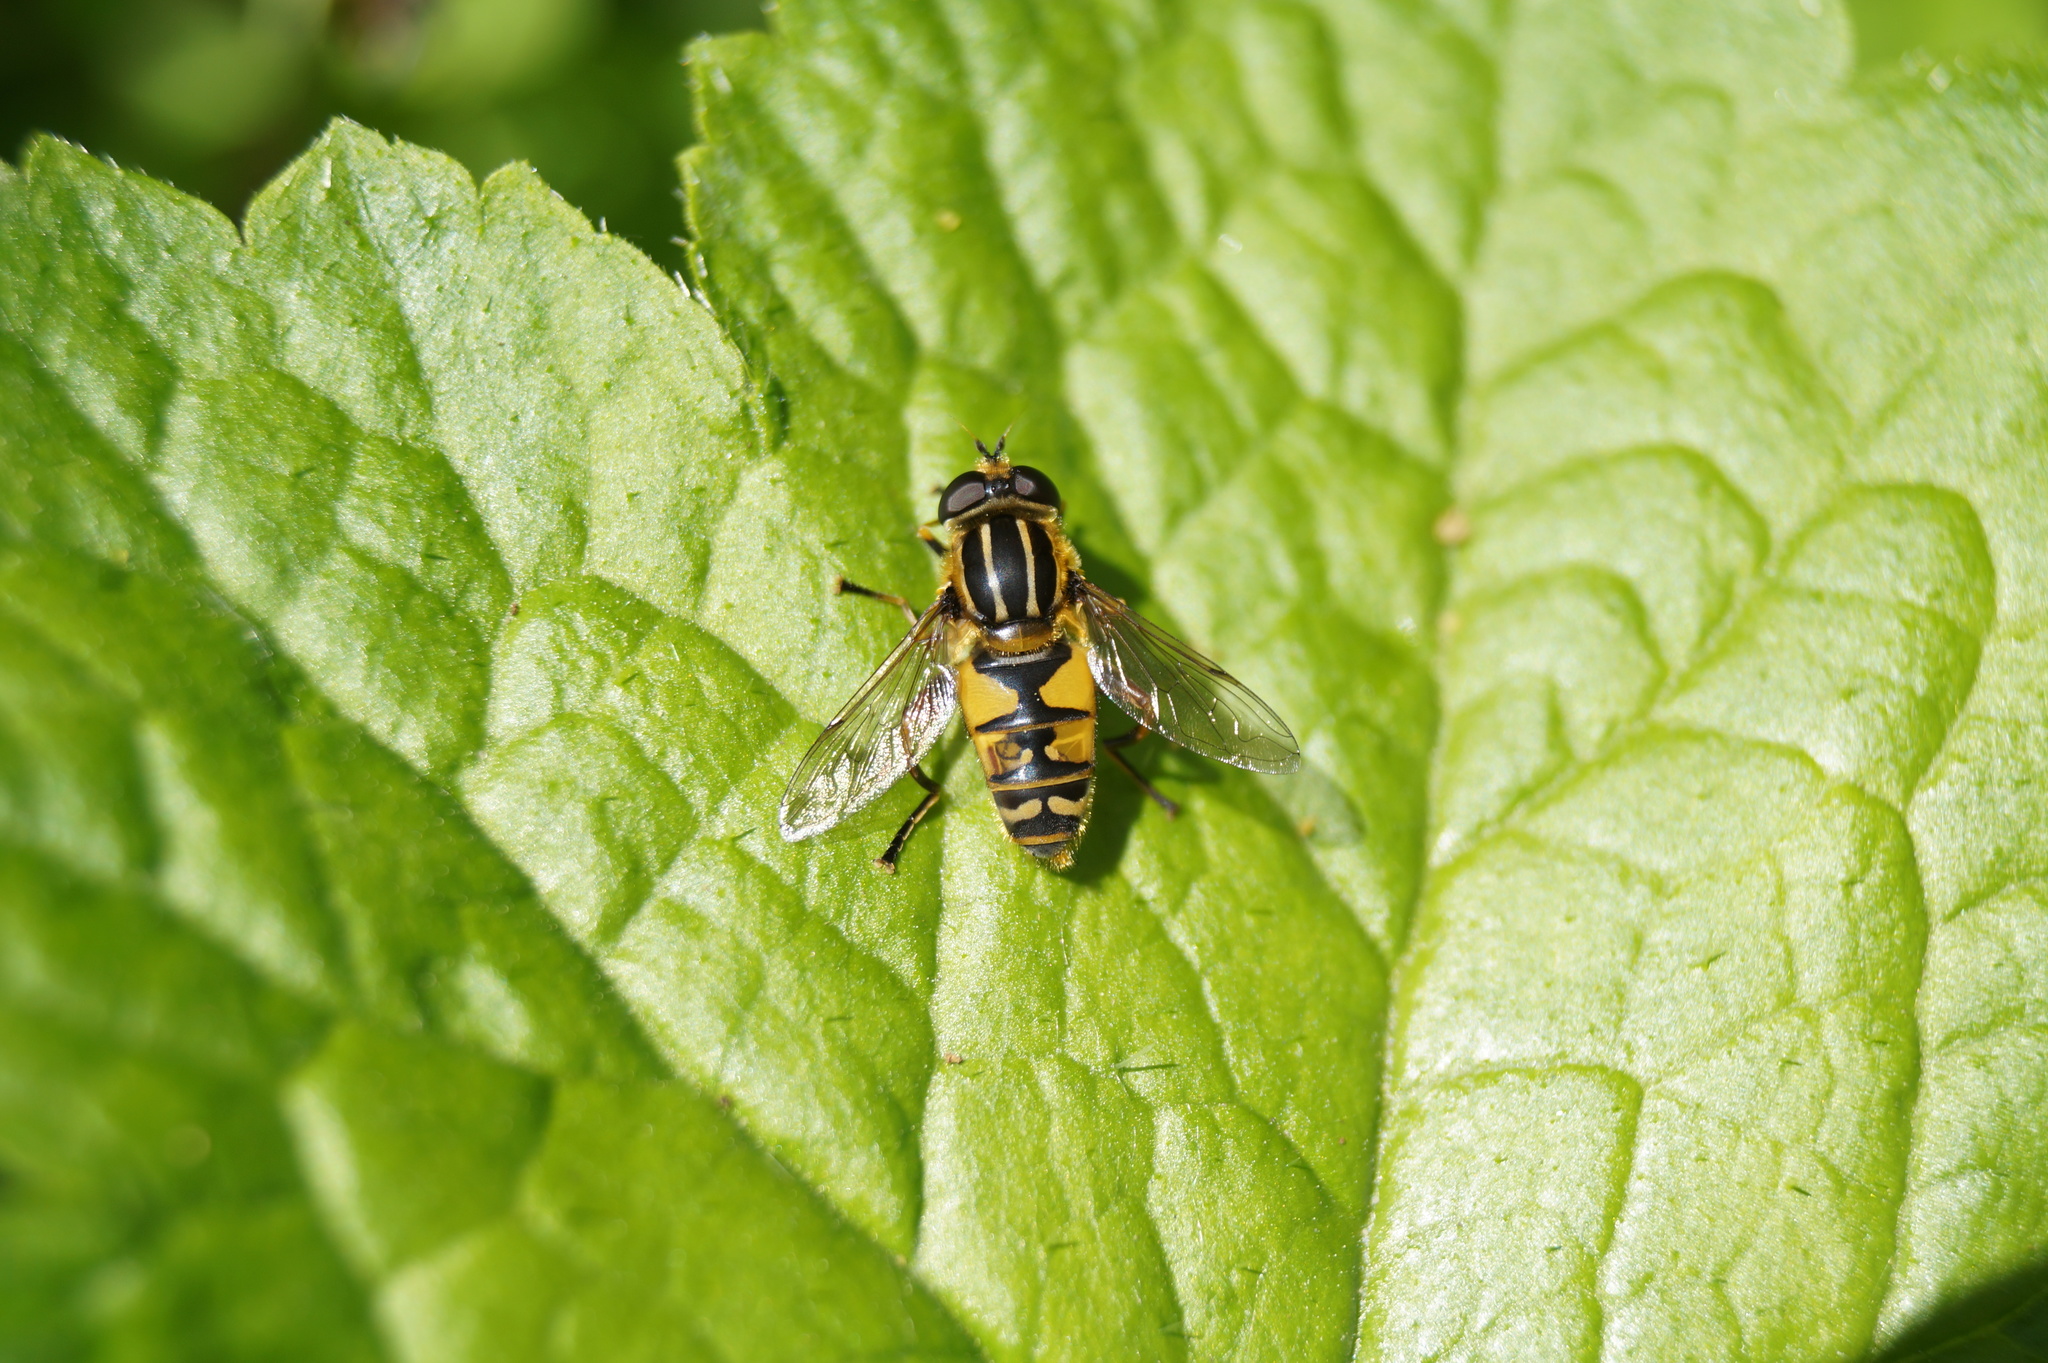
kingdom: Animalia
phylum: Arthropoda
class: Insecta
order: Diptera
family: Syrphidae
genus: Helophilus
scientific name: Helophilus pendulus
